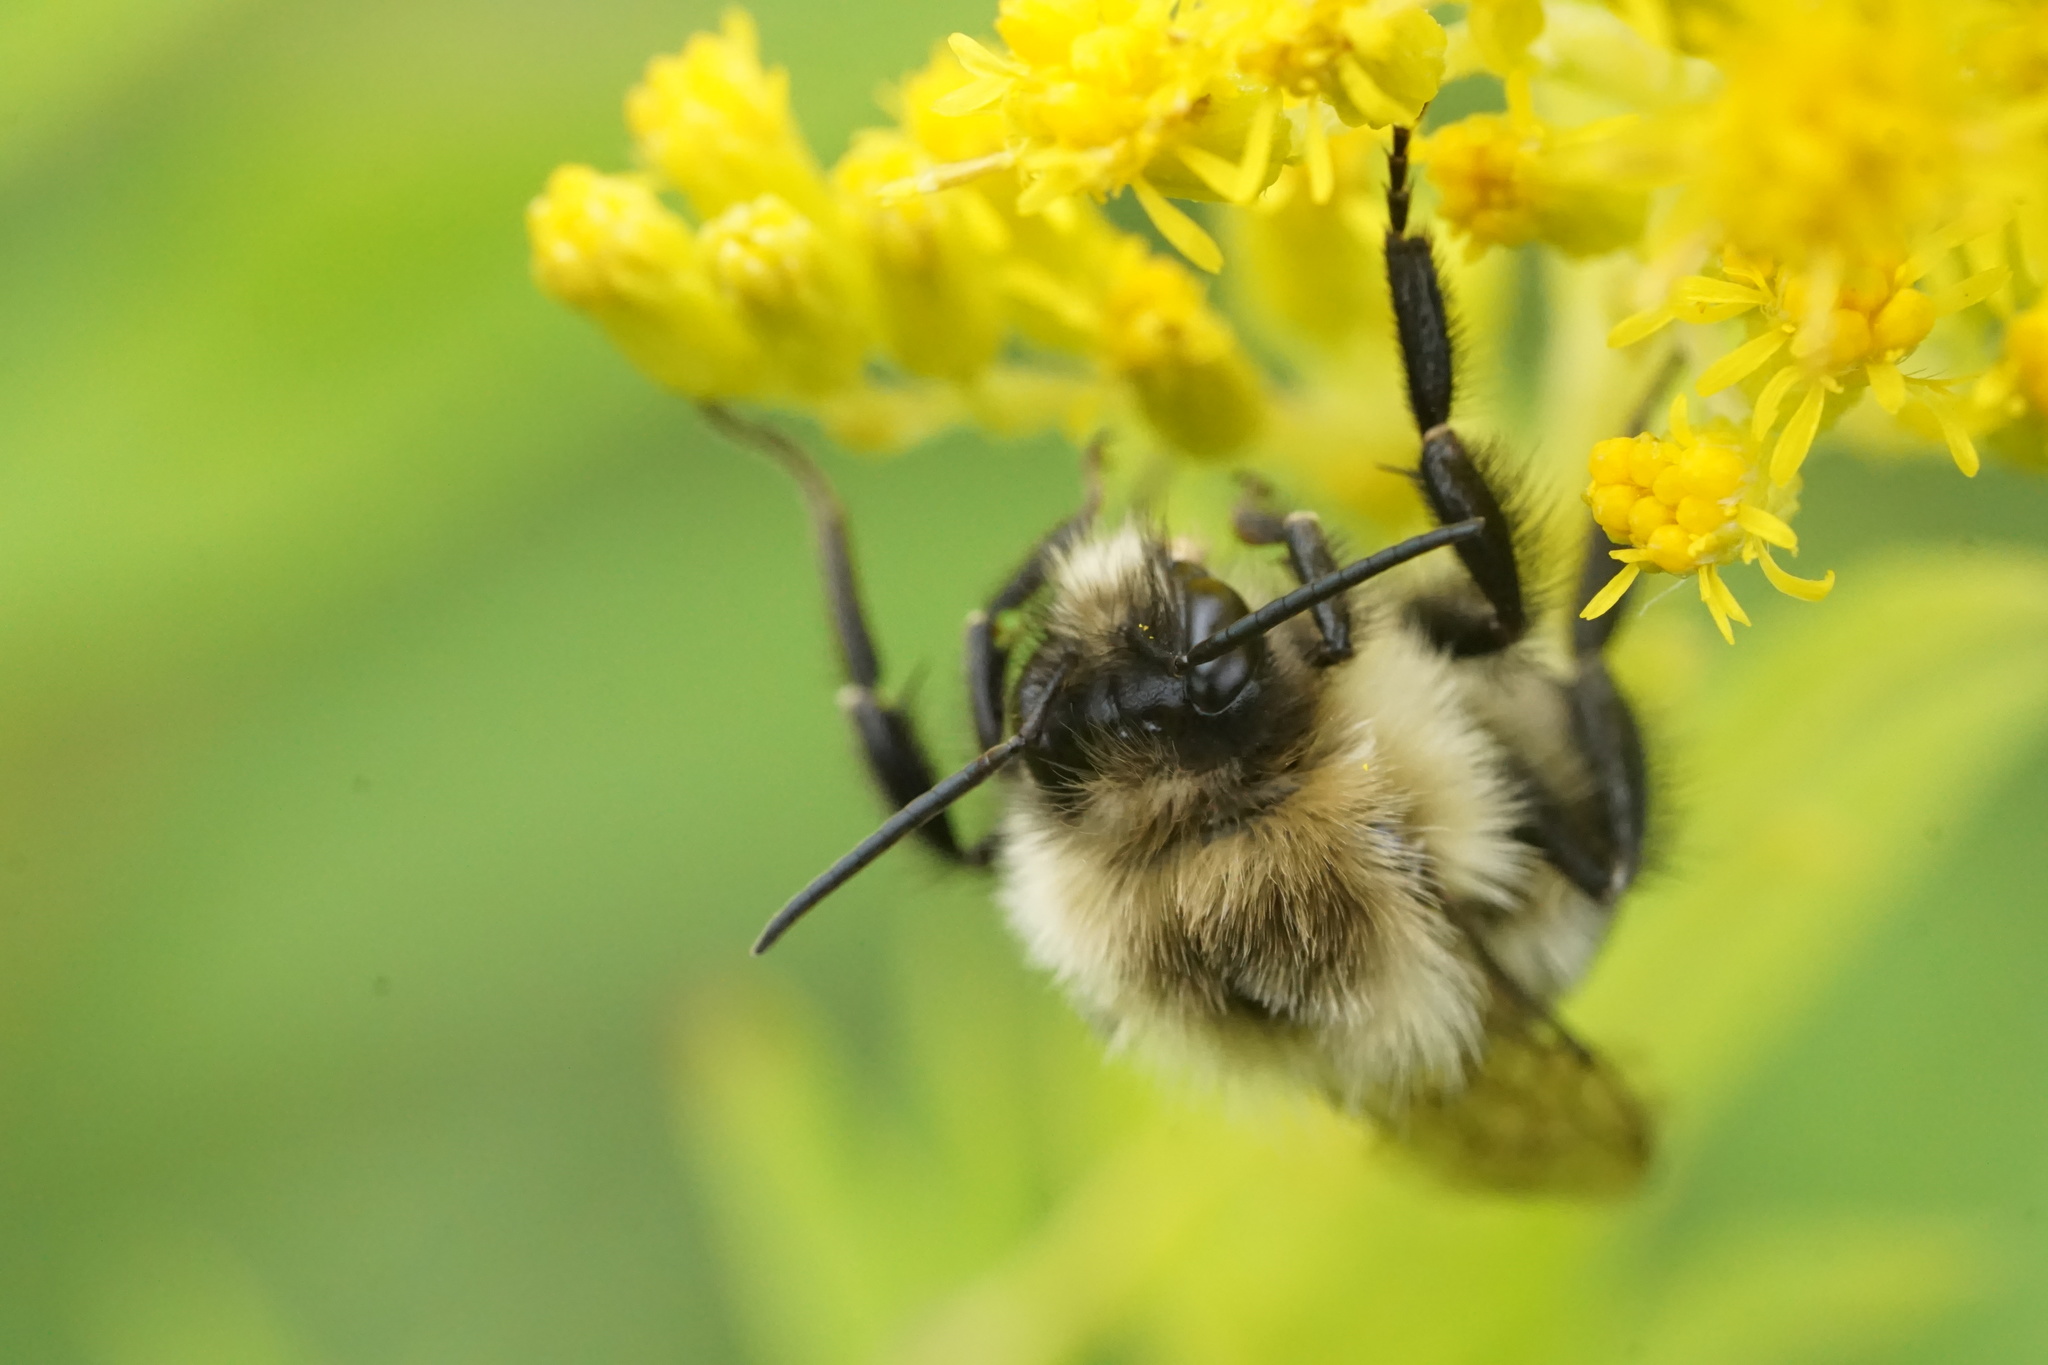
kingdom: Animalia
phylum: Arthropoda
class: Insecta
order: Hymenoptera
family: Apidae
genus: Bombus
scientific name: Bombus impatiens
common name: Common eastern bumble bee
